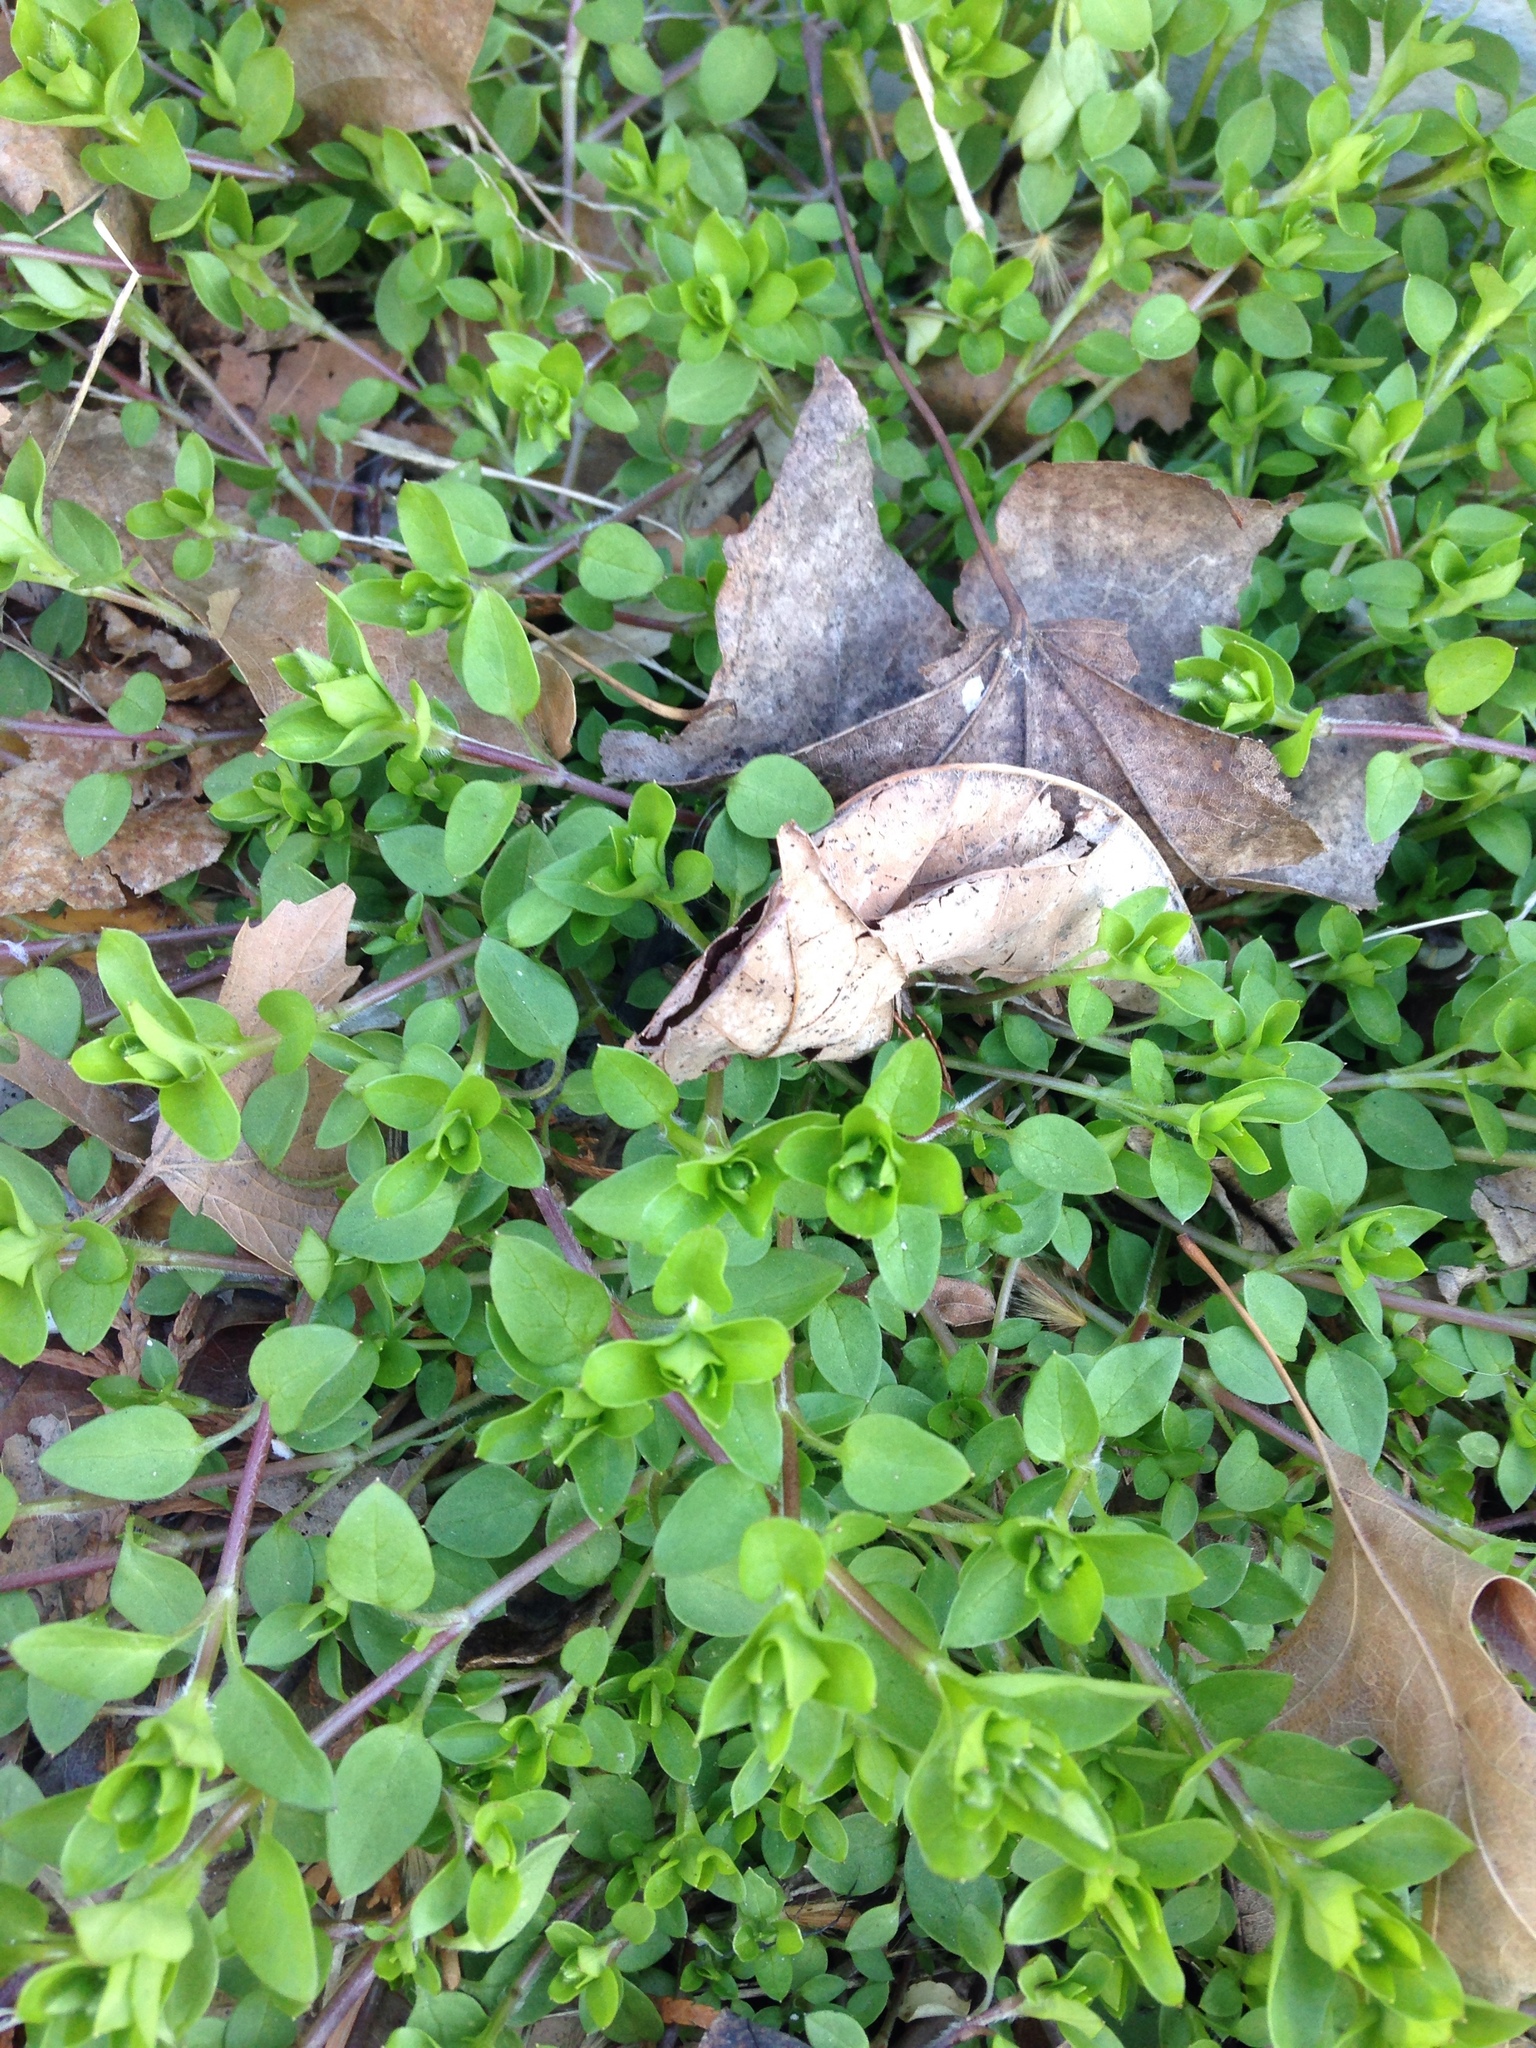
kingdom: Plantae
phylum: Tracheophyta
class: Magnoliopsida
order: Caryophyllales
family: Caryophyllaceae
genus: Stellaria
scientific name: Stellaria media
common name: Common chickweed
